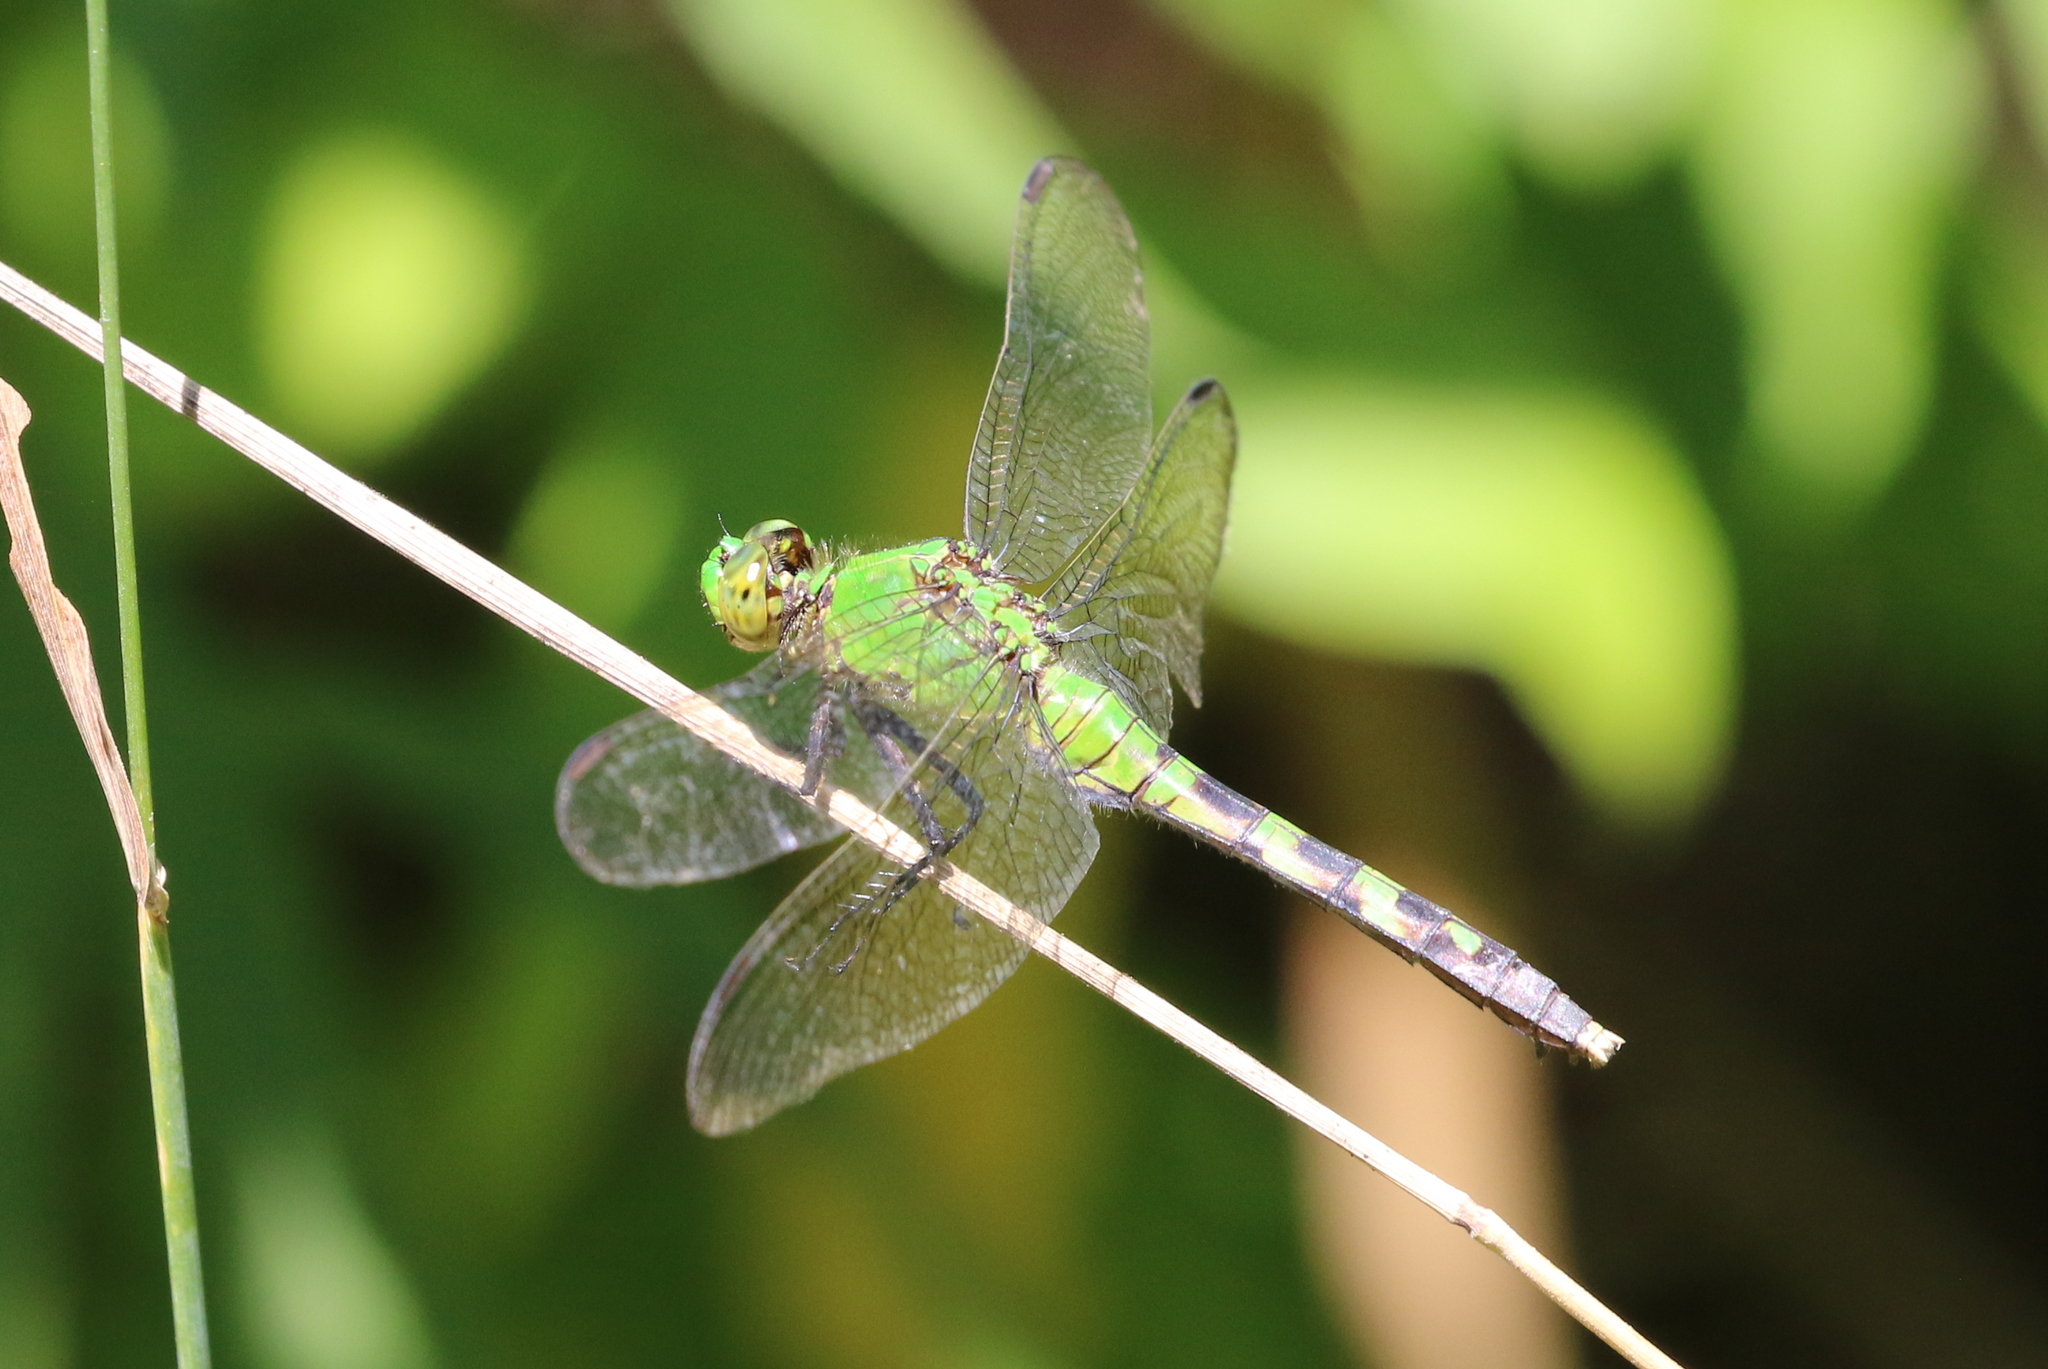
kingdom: Animalia
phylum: Arthropoda
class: Insecta
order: Odonata
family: Libellulidae
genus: Erythemis
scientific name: Erythemis simplicicollis
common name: Eastern pondhawk
